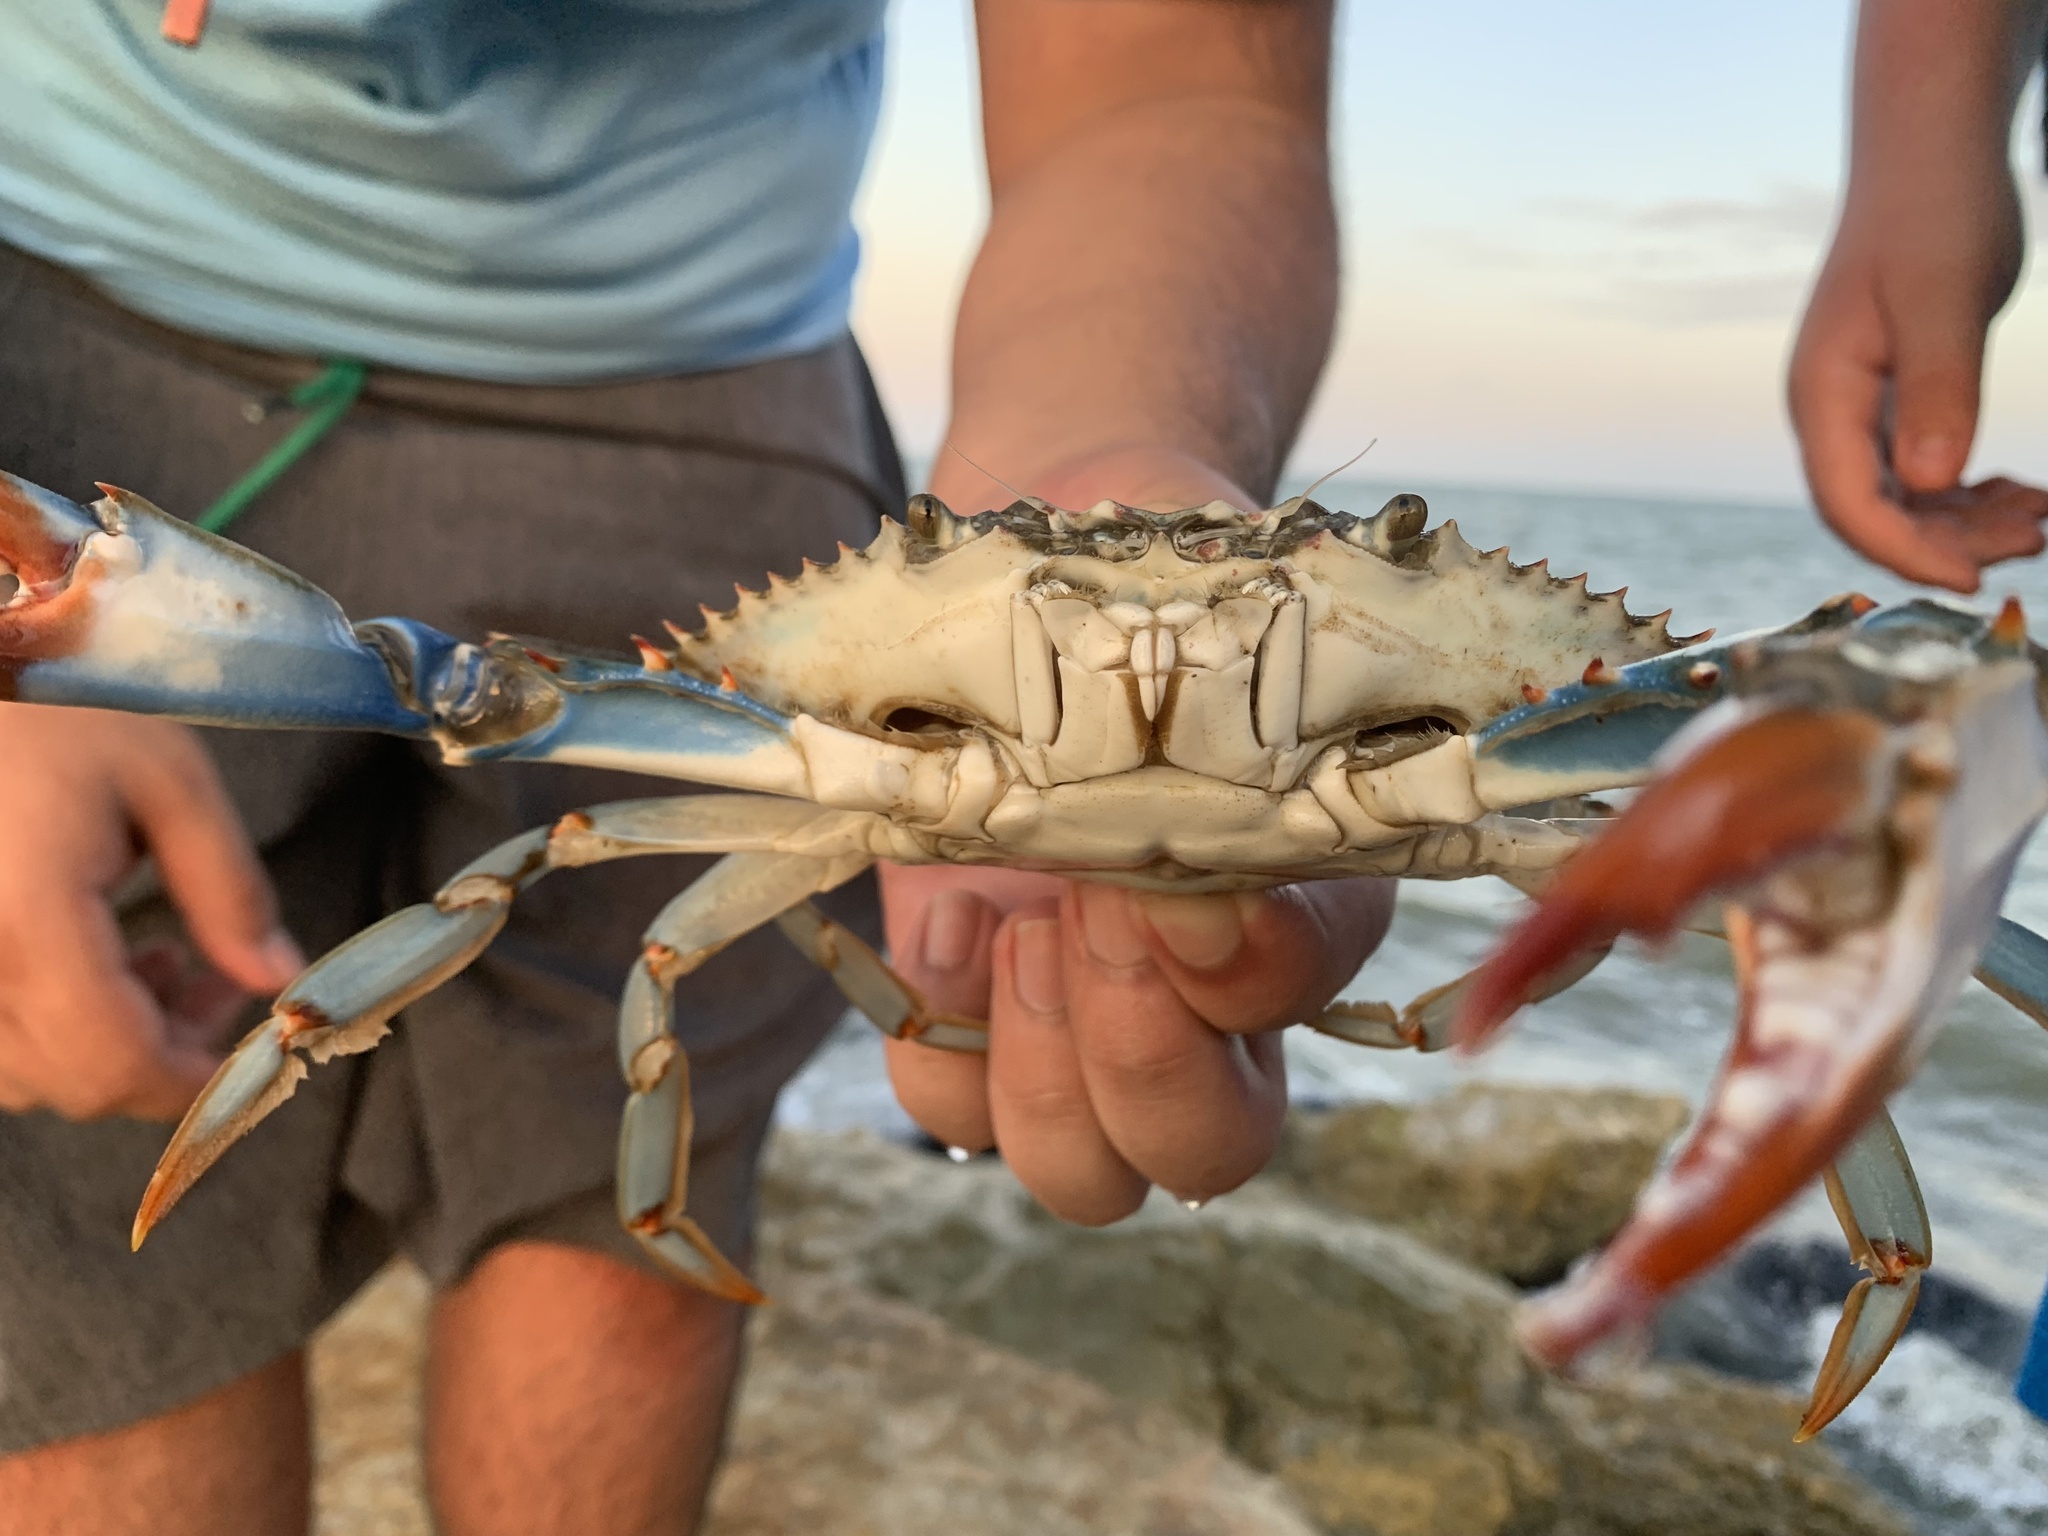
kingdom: Animalia
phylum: Arthropoda
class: Malacostraca
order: Decapoda
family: Portunidae
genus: Callinectes
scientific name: Callinectes sapidus
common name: Blue crab
